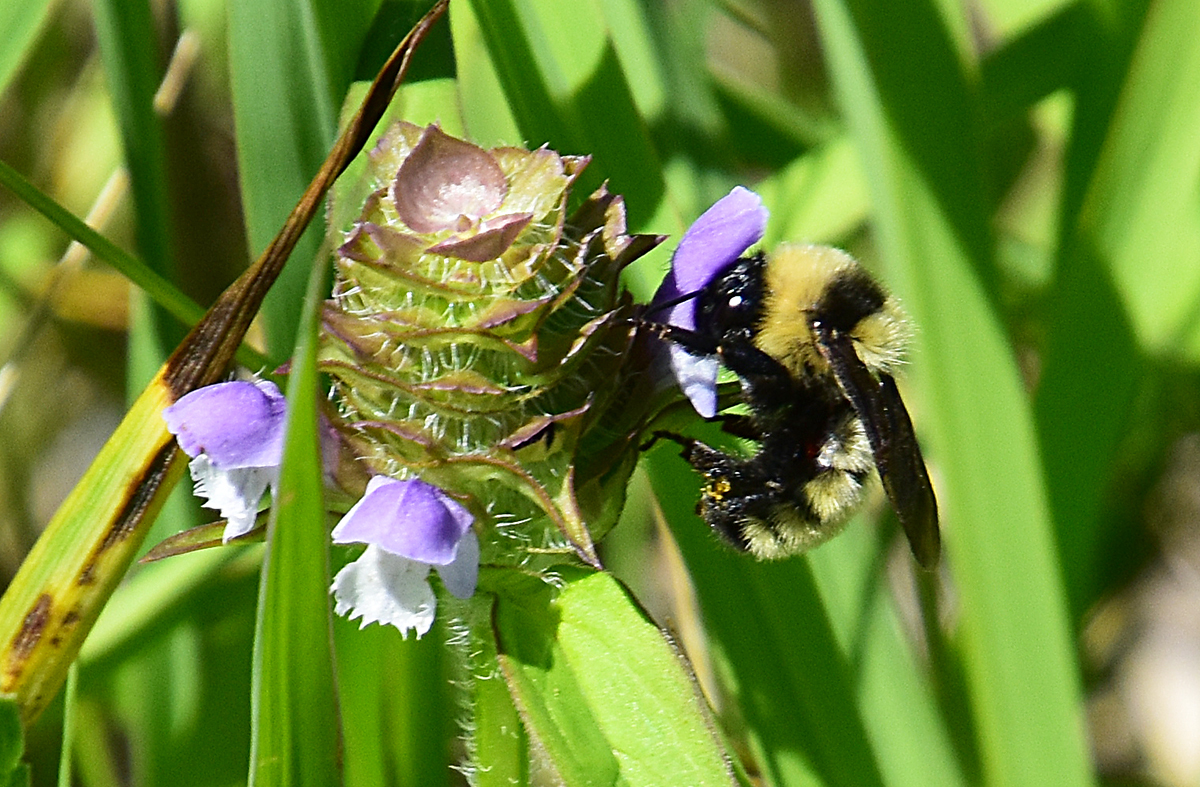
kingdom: Animalia
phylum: Arthropoda
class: Insecta
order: Hymenoptera
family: Apidae
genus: Bombus
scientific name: Bombus fervidus
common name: Yellow bumble bee
